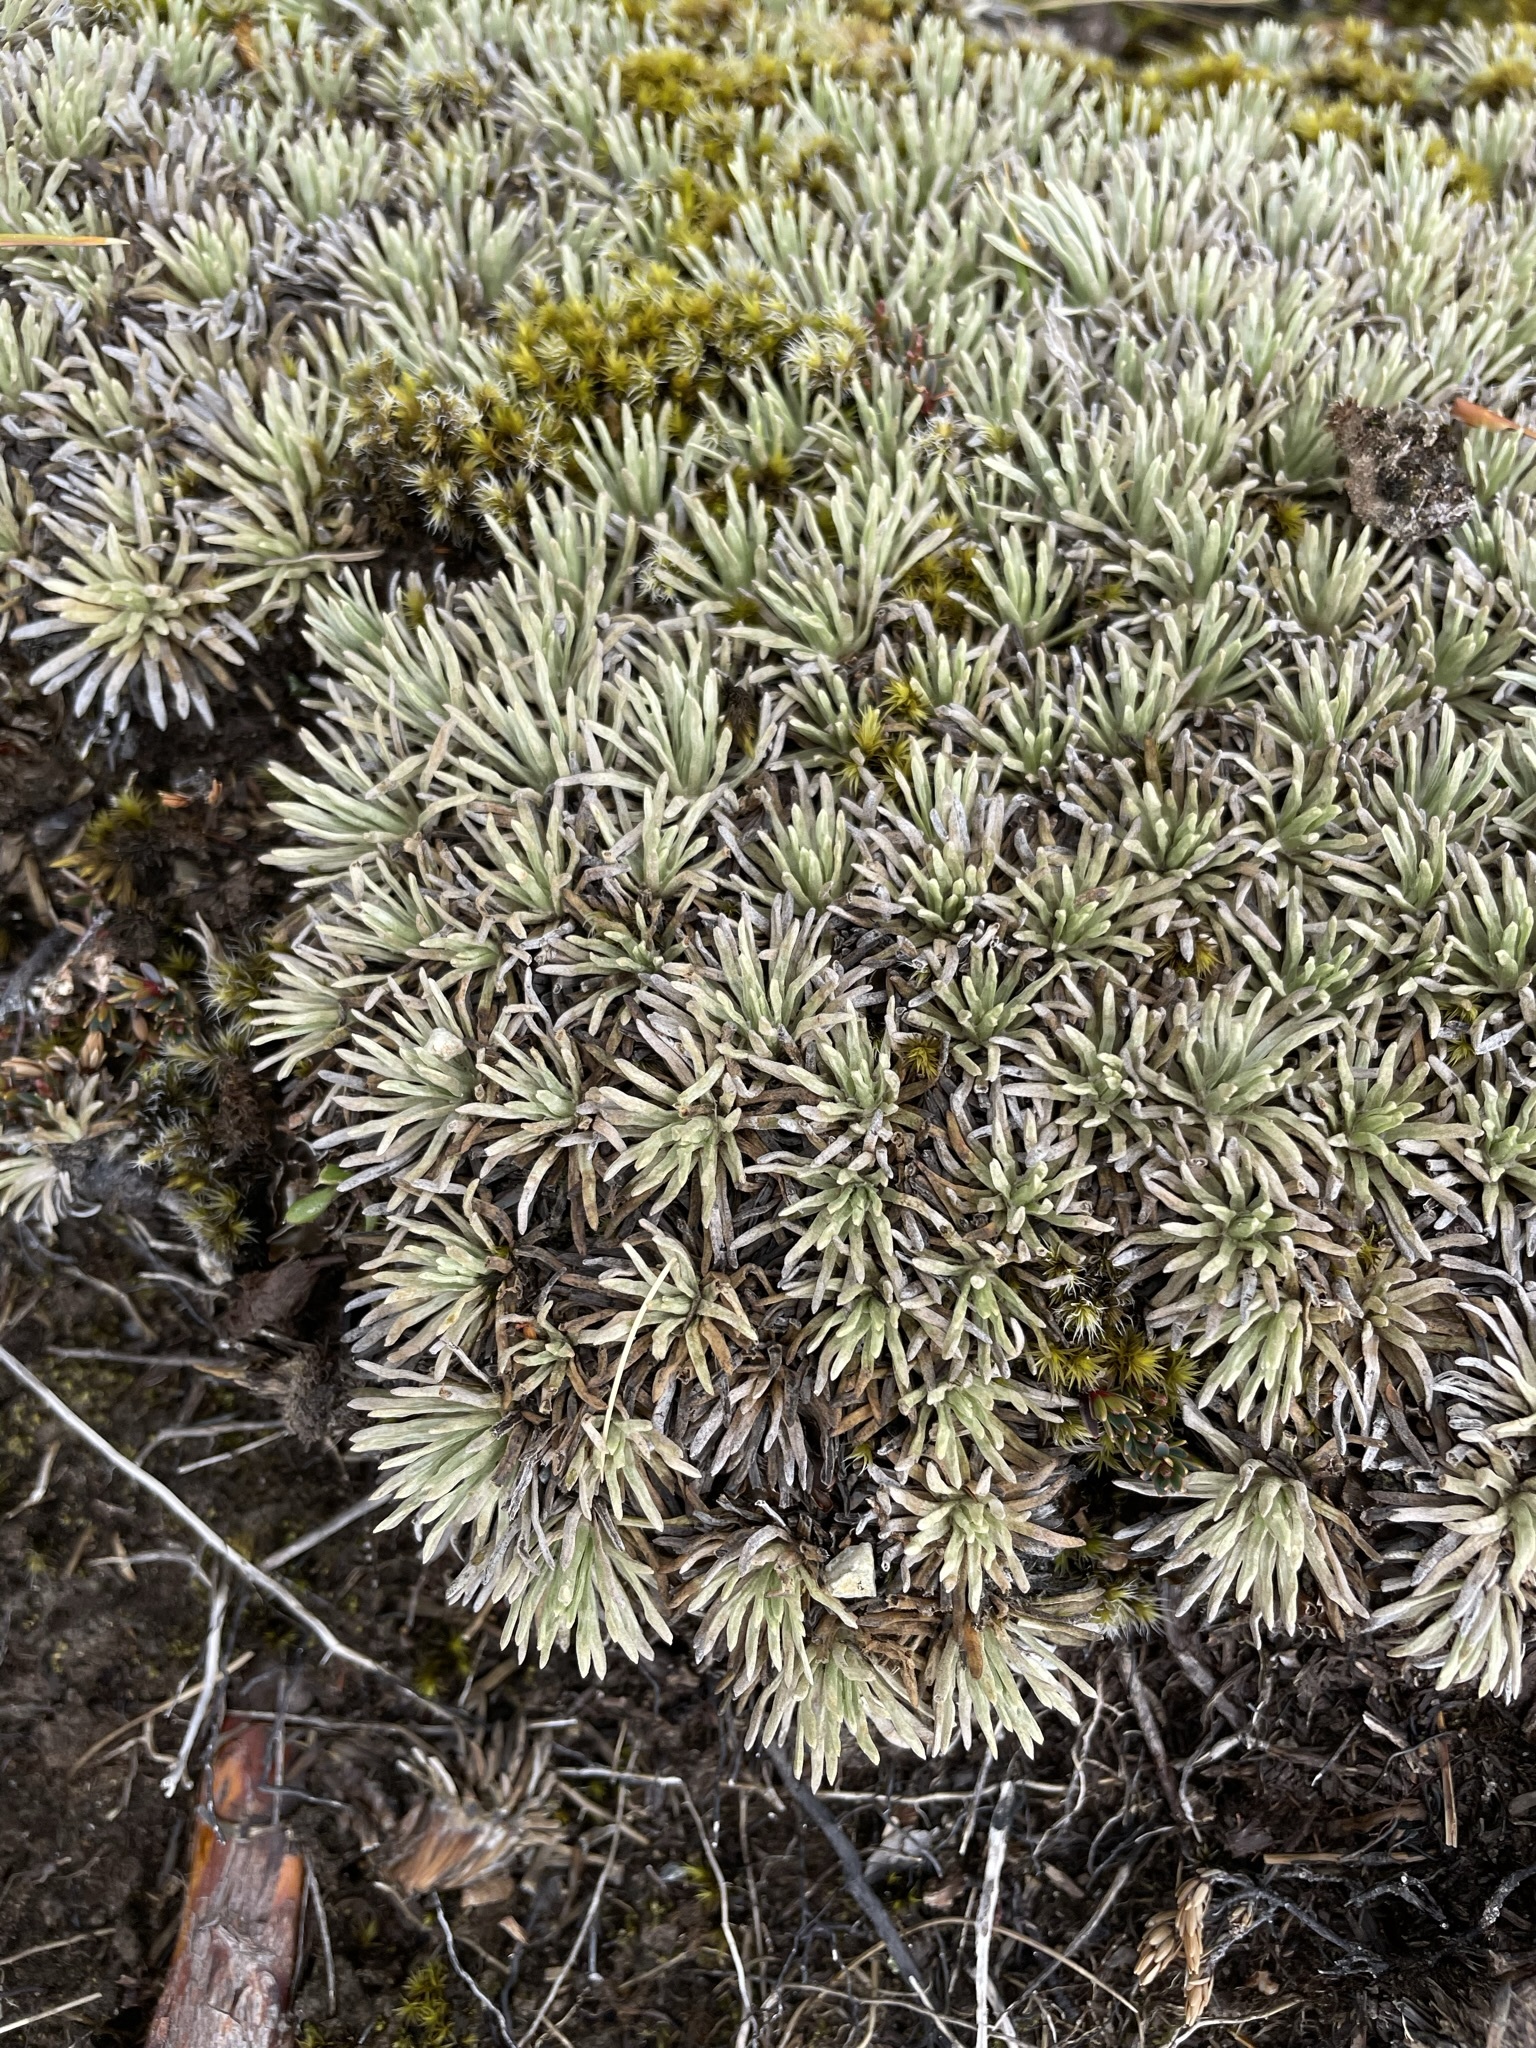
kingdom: Plantae
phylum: Tracheophyta
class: Magnoliopsida
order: Asterales
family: Asteraceae
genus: Celmisia
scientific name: Celmisia sessiliflora
